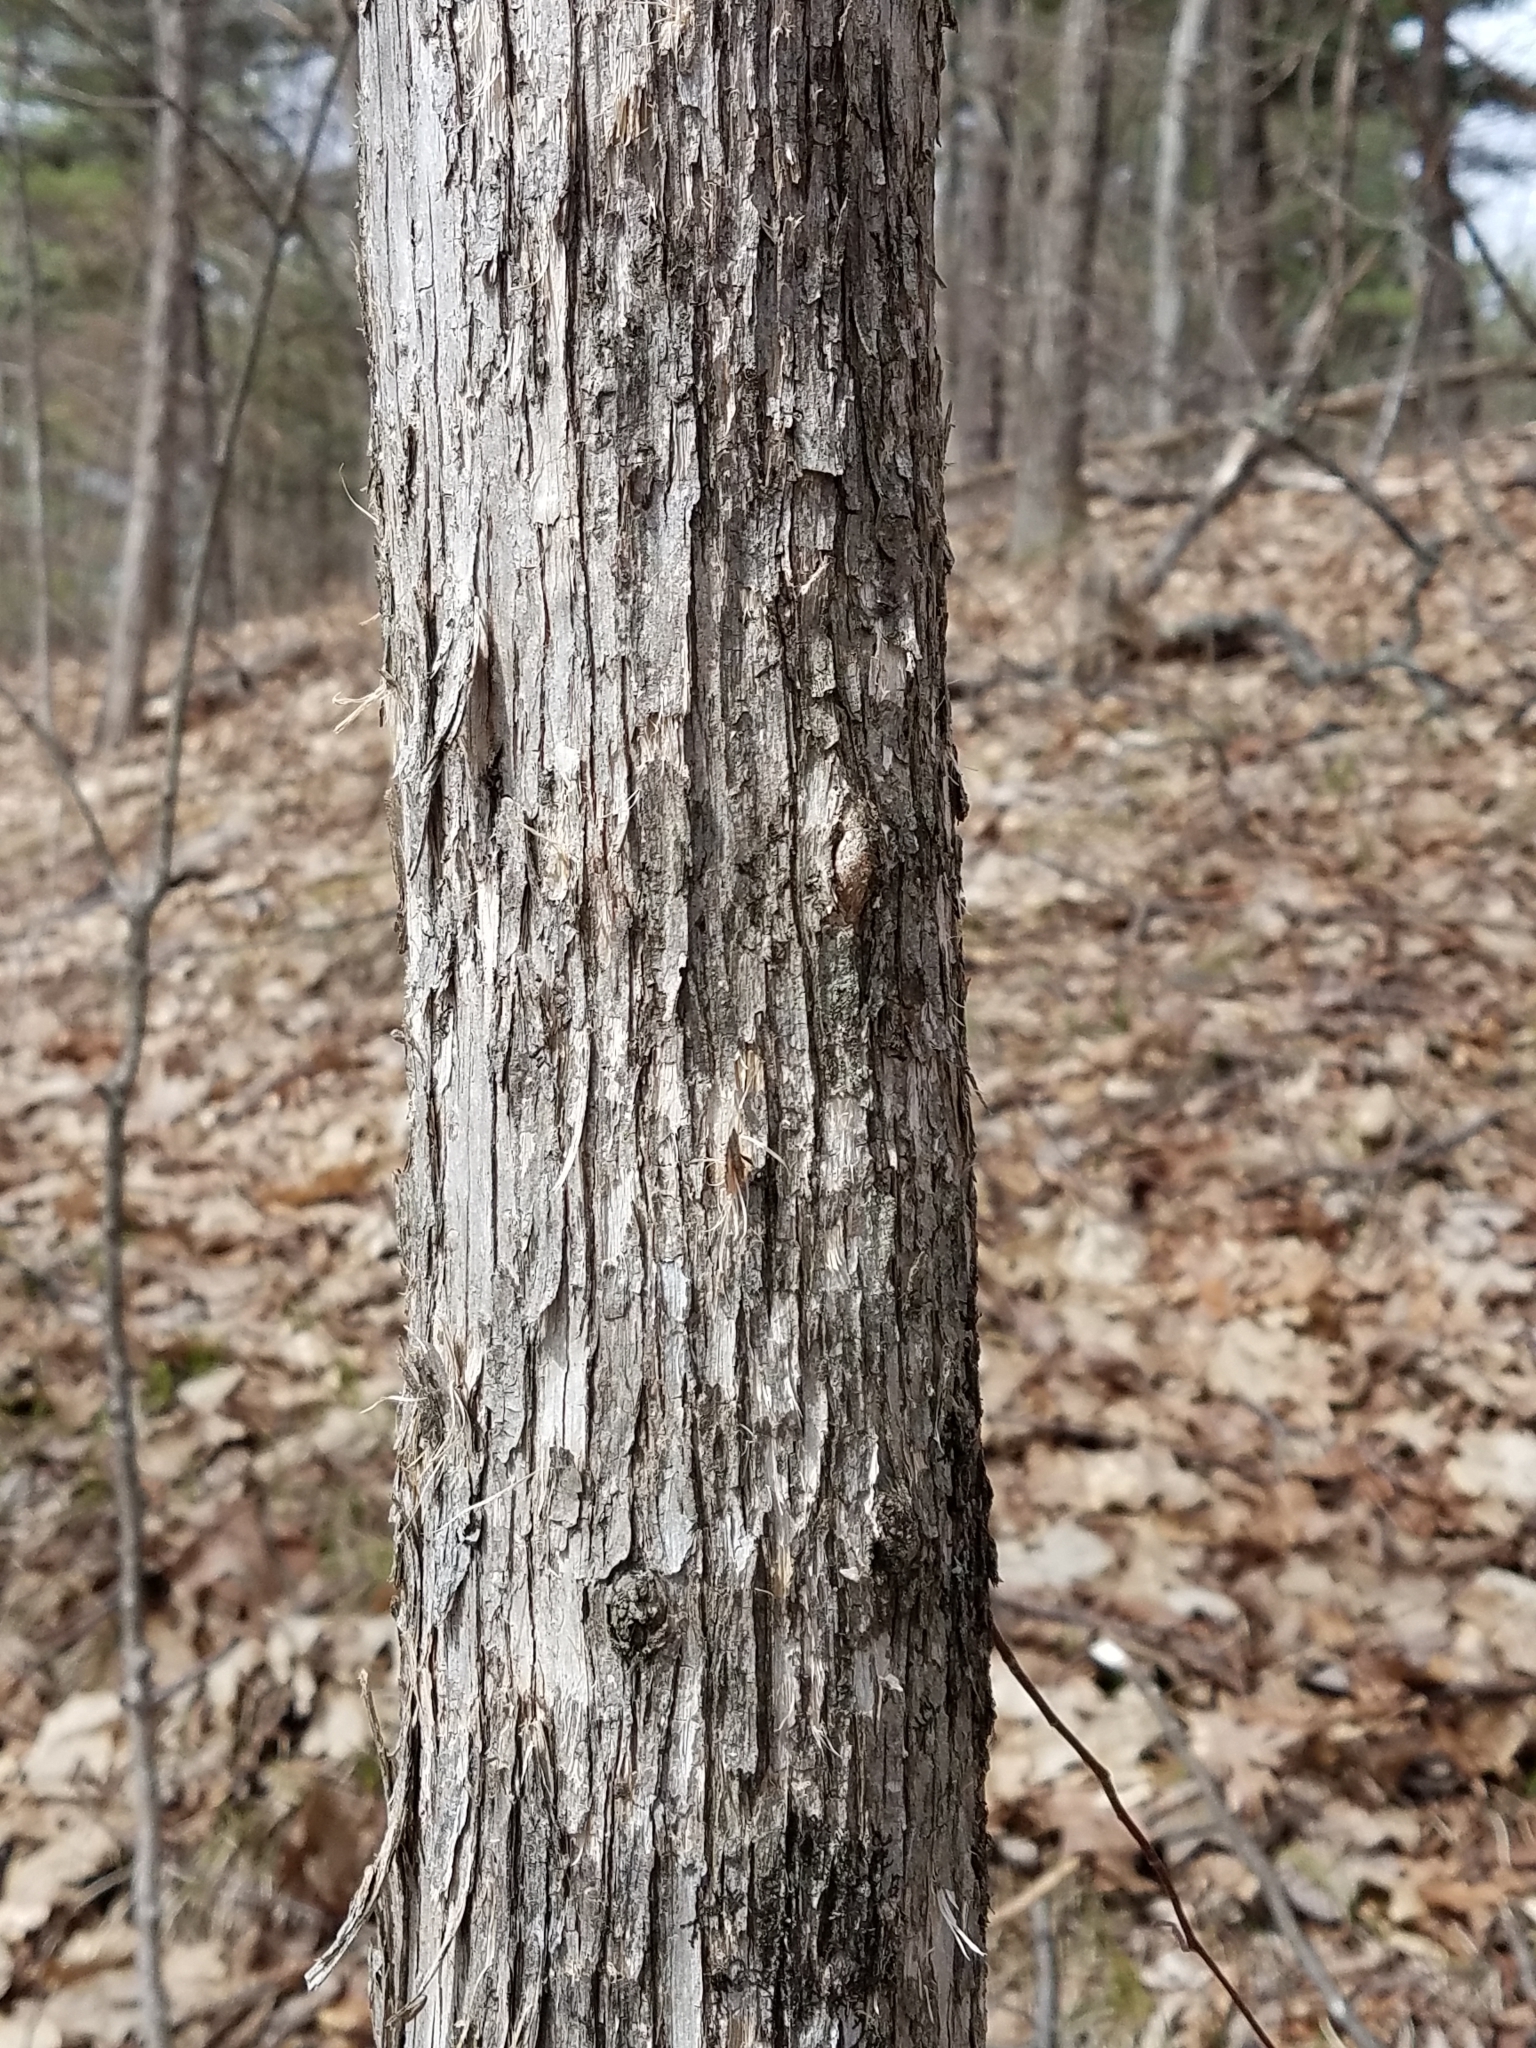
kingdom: Plantae
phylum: Tracheophyta
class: Magnoliopsida
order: Fagales
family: Betulaceae
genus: Ostrya
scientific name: Ostrya virginiana
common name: Ironwood
